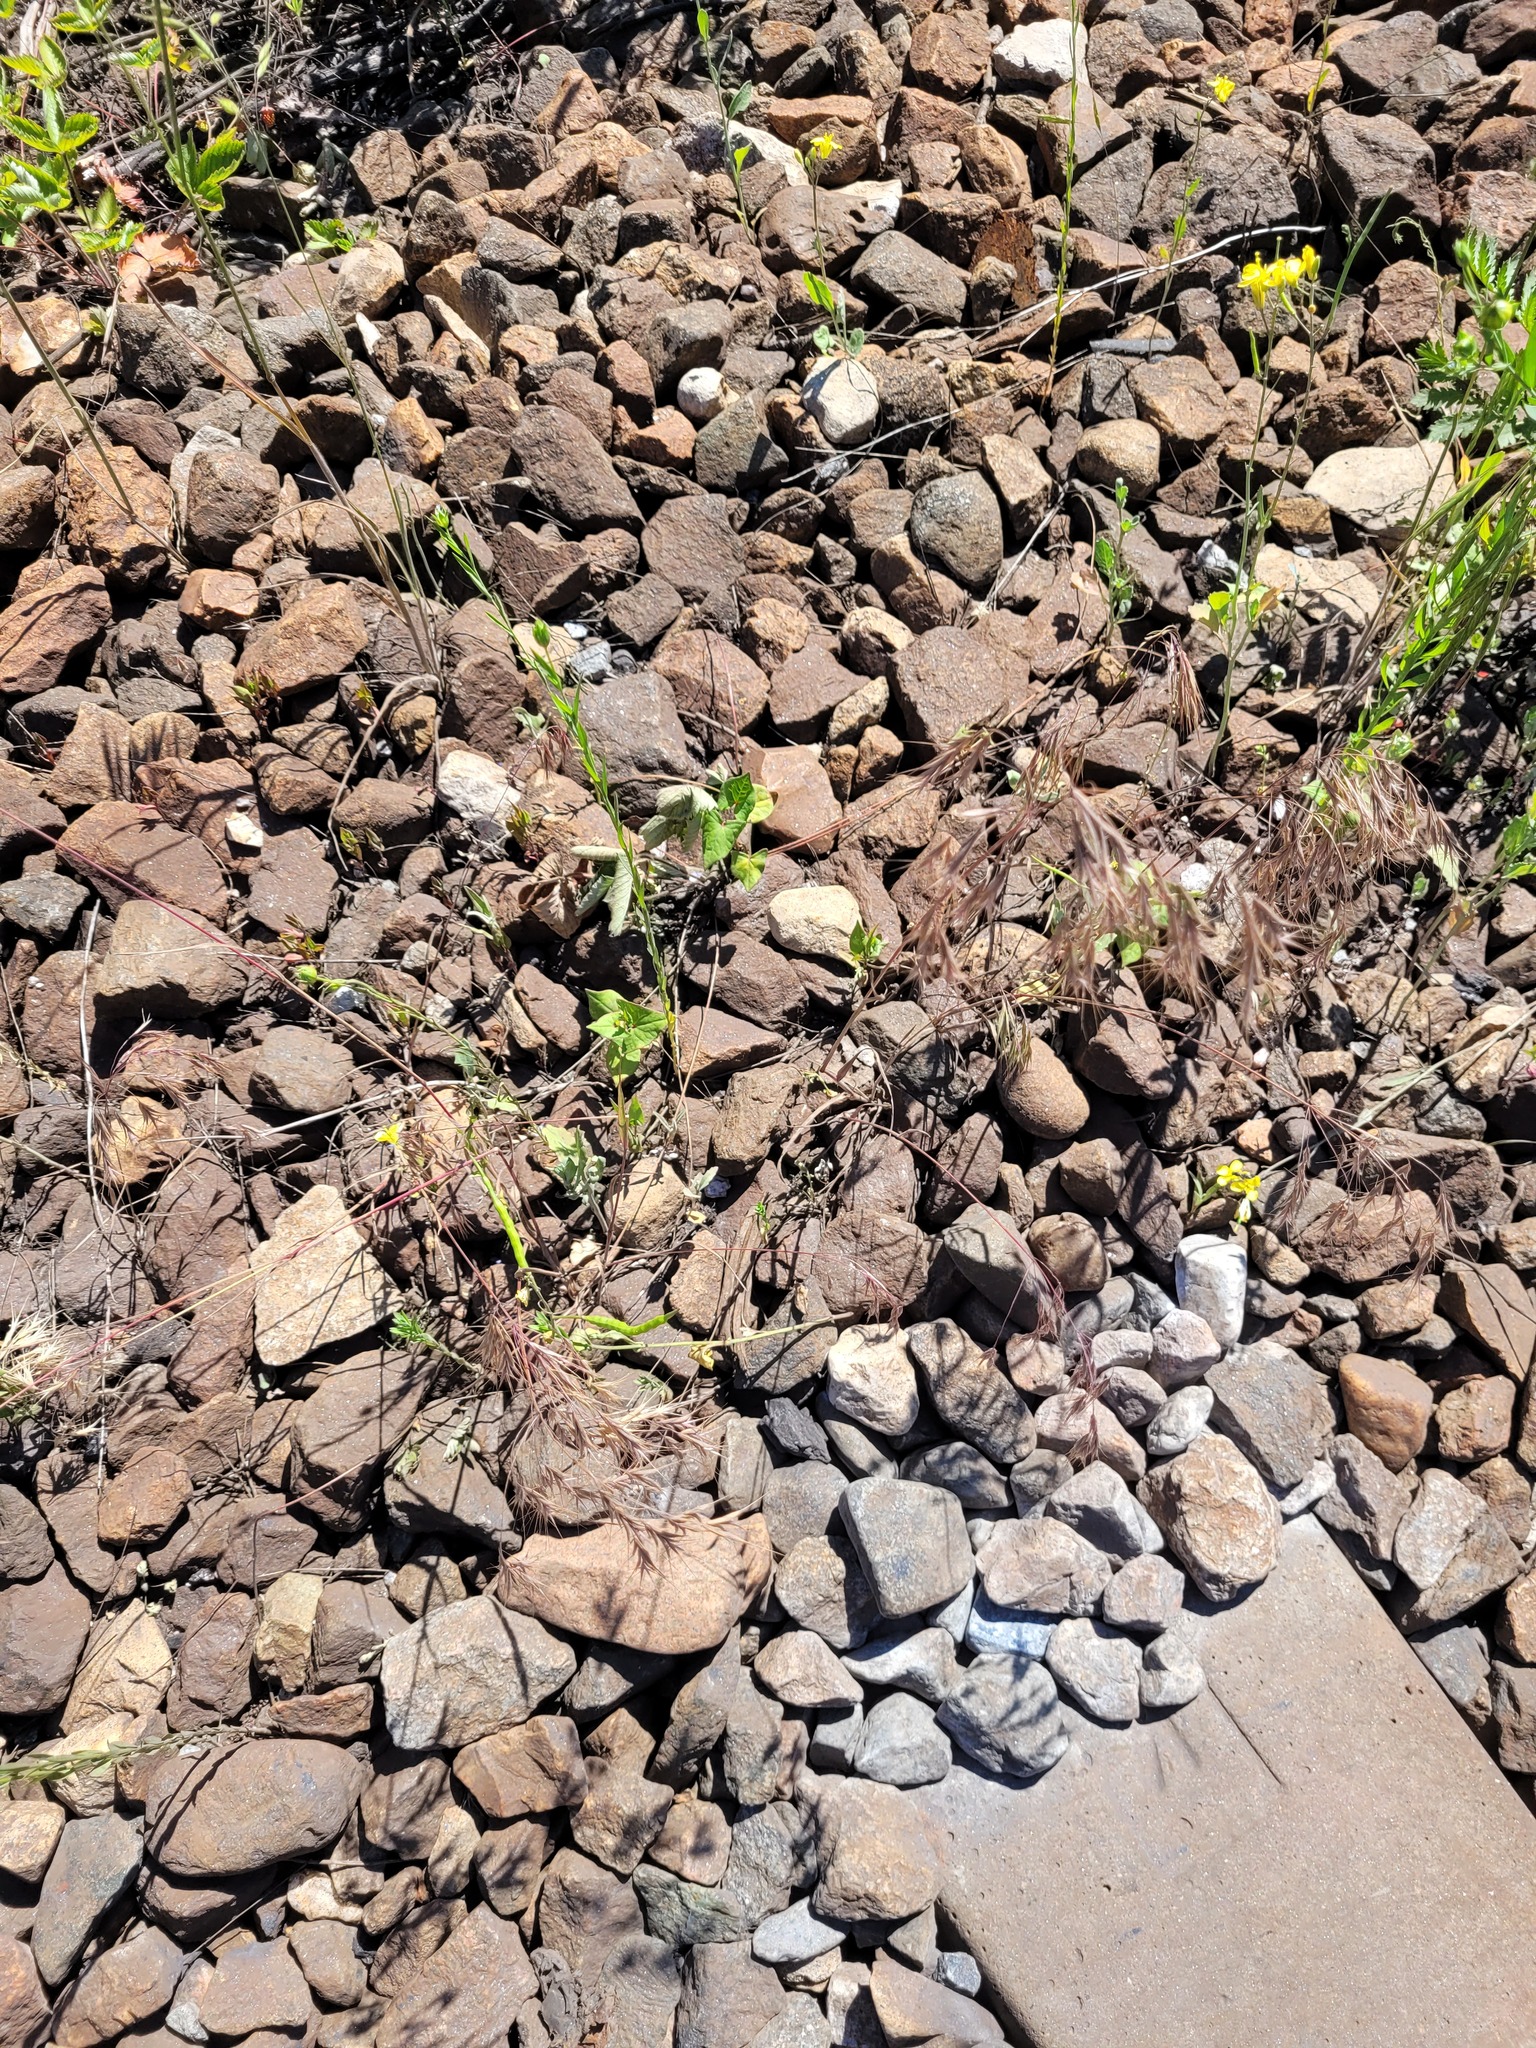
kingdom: Plantae
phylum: Tracheophyta
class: Liliopsida
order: Poales
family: Poaceae
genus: Bromus
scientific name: Bromus tectorum
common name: Cheatgrass
